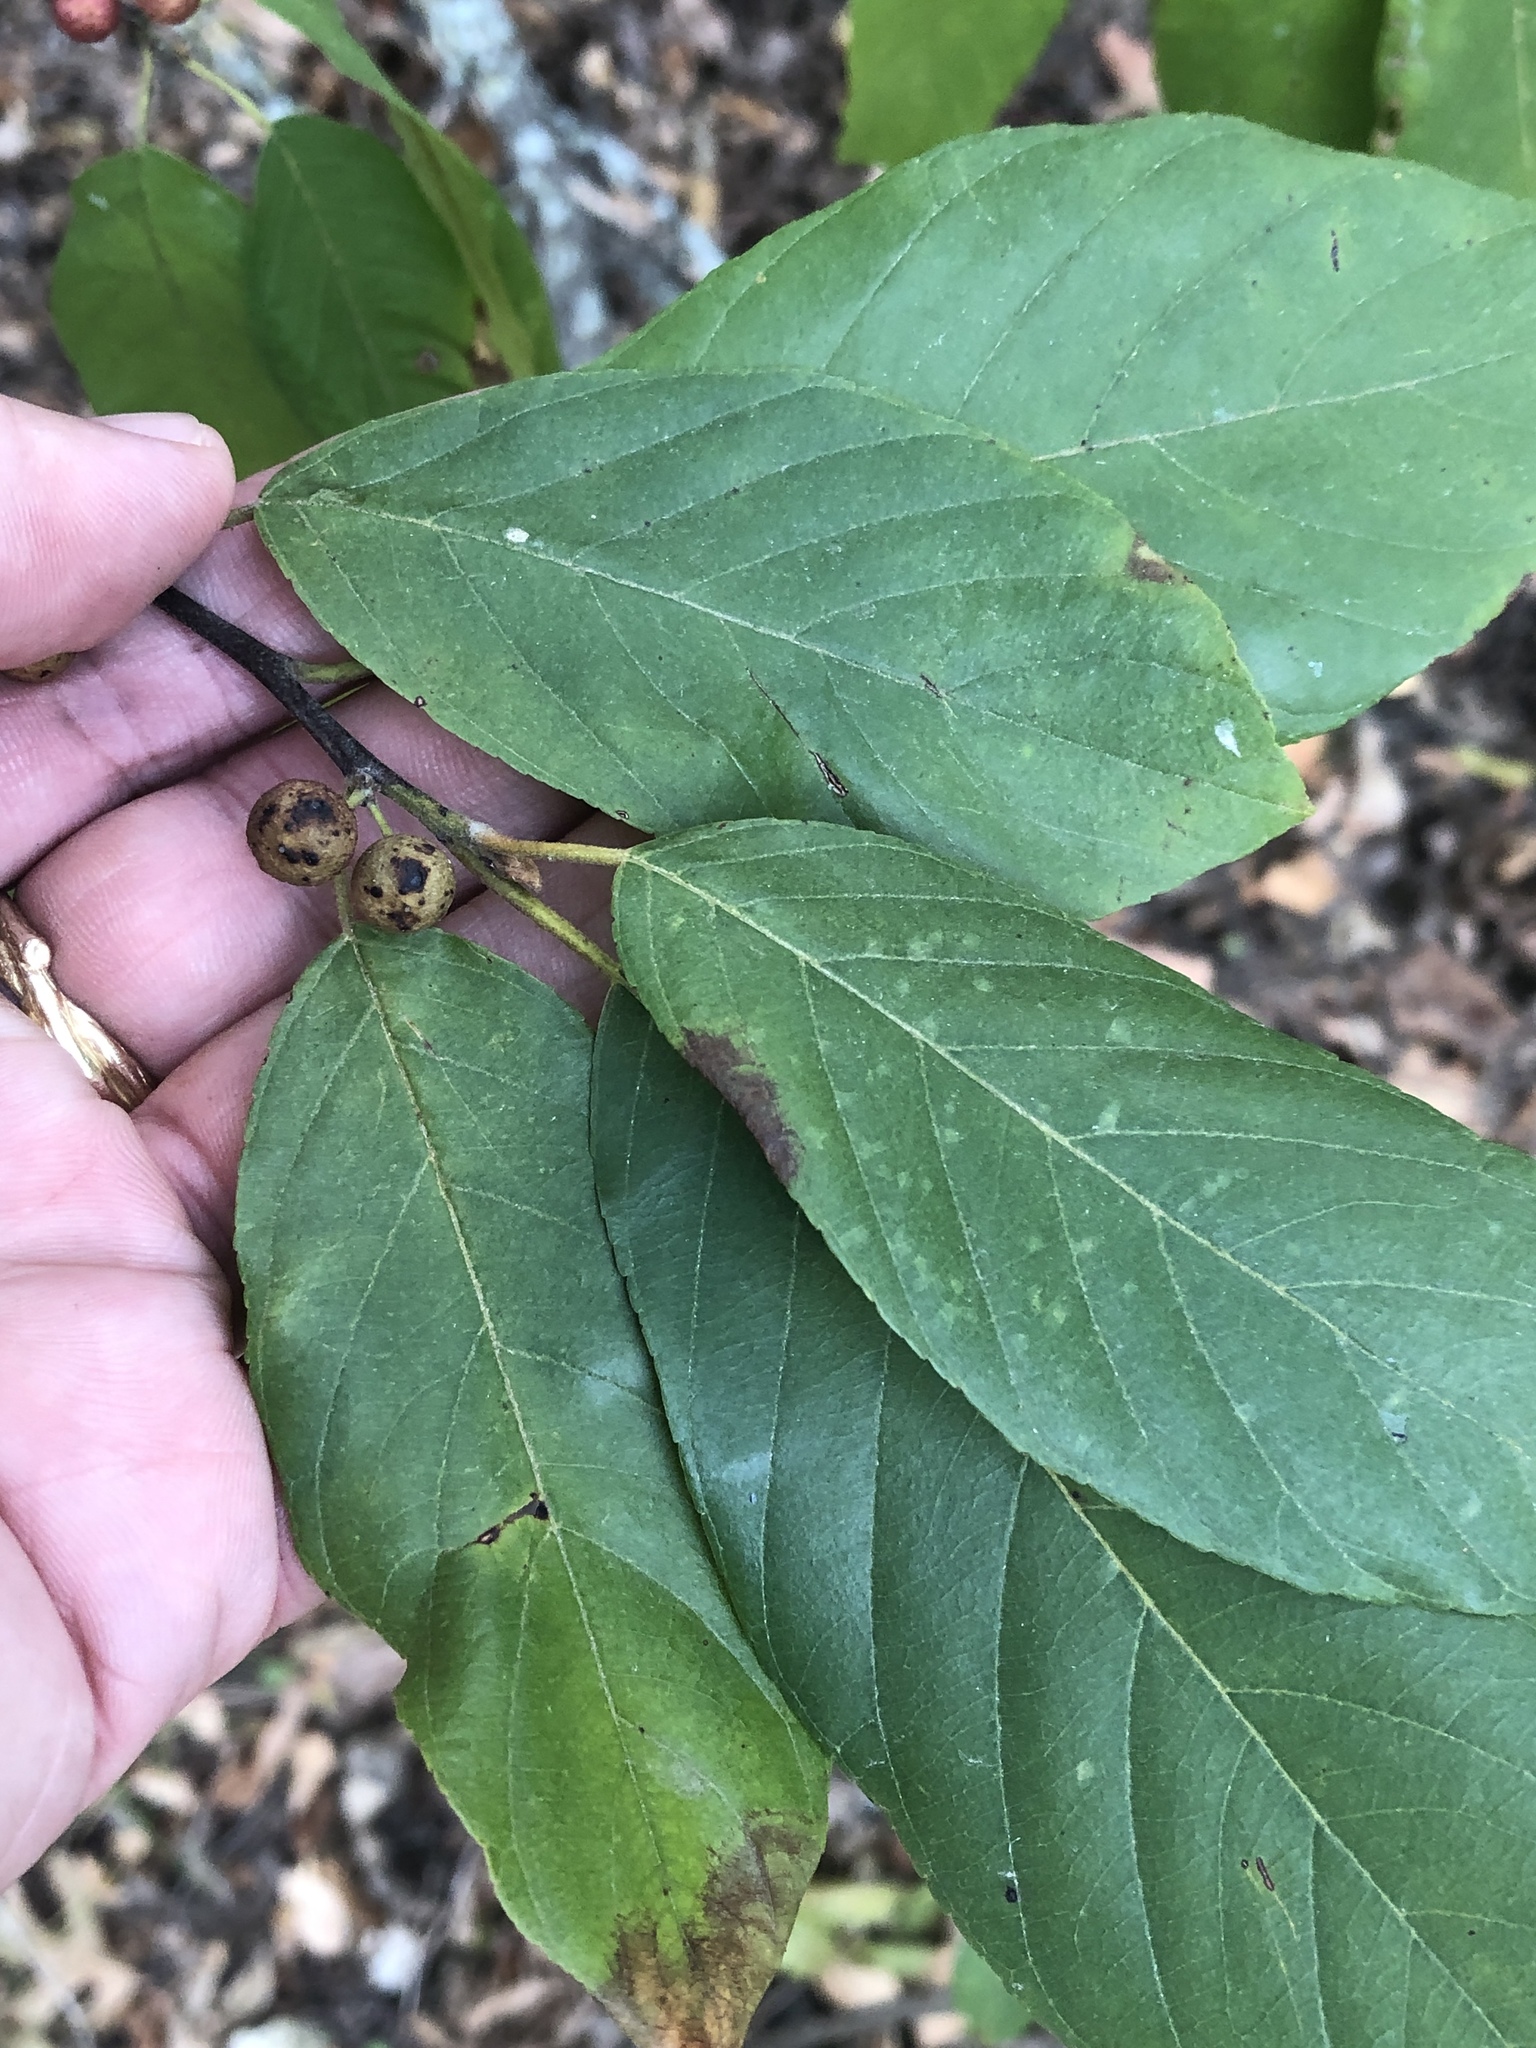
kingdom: Plantae
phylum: Tracheophyta
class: Magnoliopsida
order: Rosales
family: Rhamnaceae
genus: Frangula
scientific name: Frangula caroliniana
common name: Carolina buckthorn
